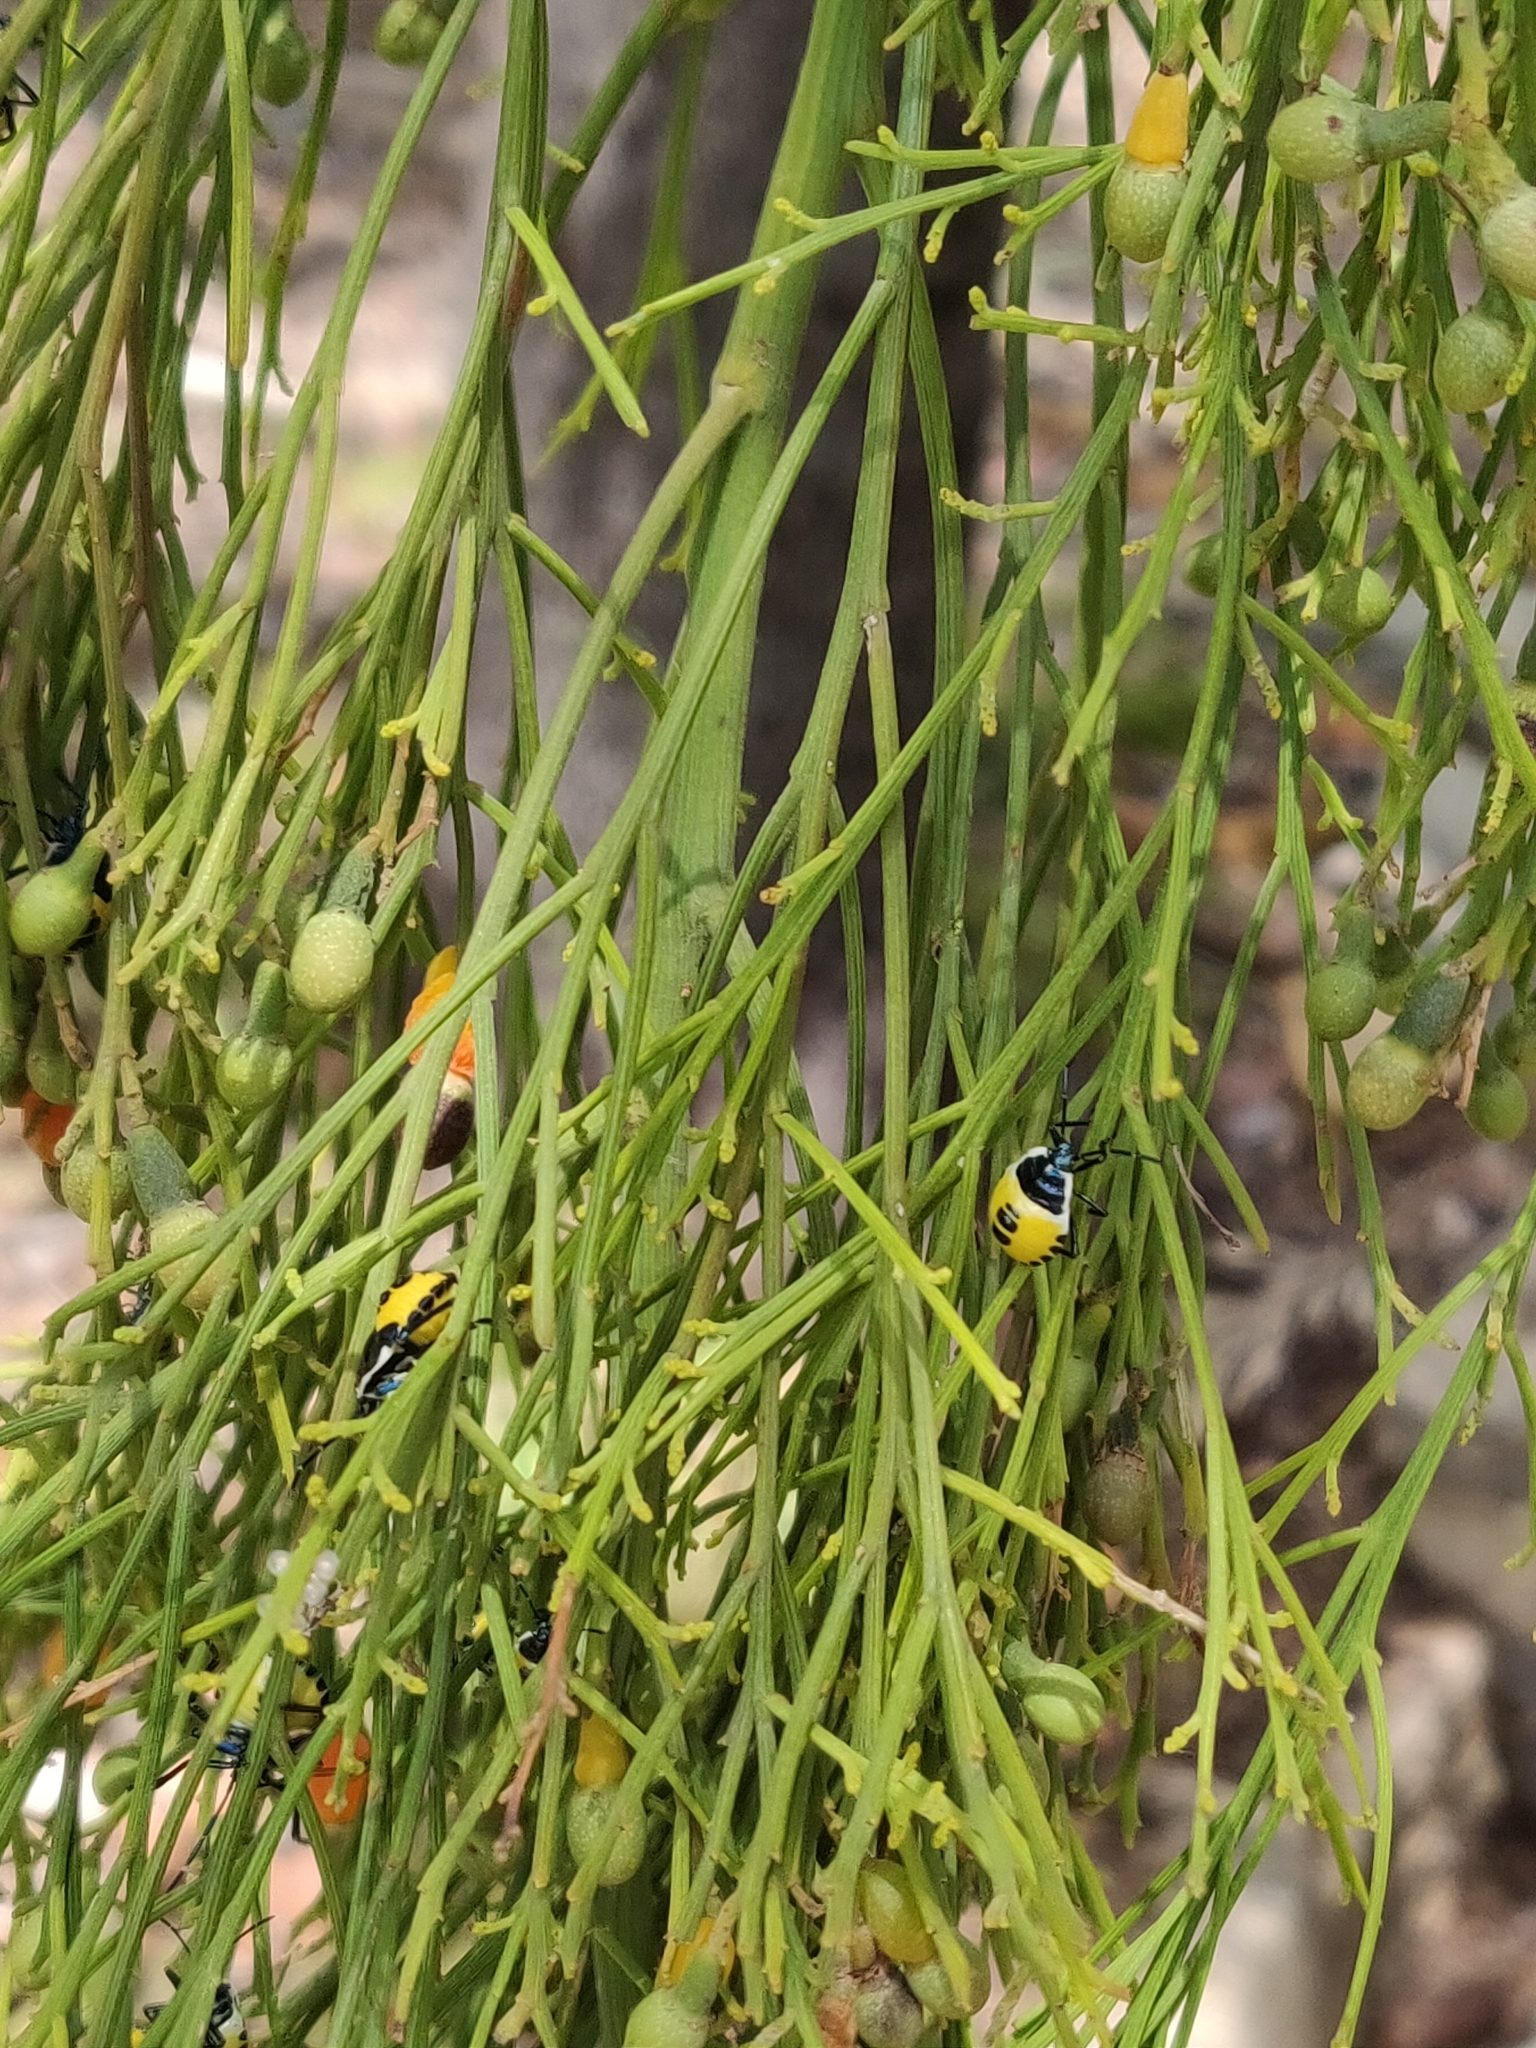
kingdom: Plantae
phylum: Tracheophyta
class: Magnoliopsida
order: Santalales
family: Santalaceae
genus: Exocarpos
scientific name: Exocarpos cupressiformis
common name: Cherry ballart
